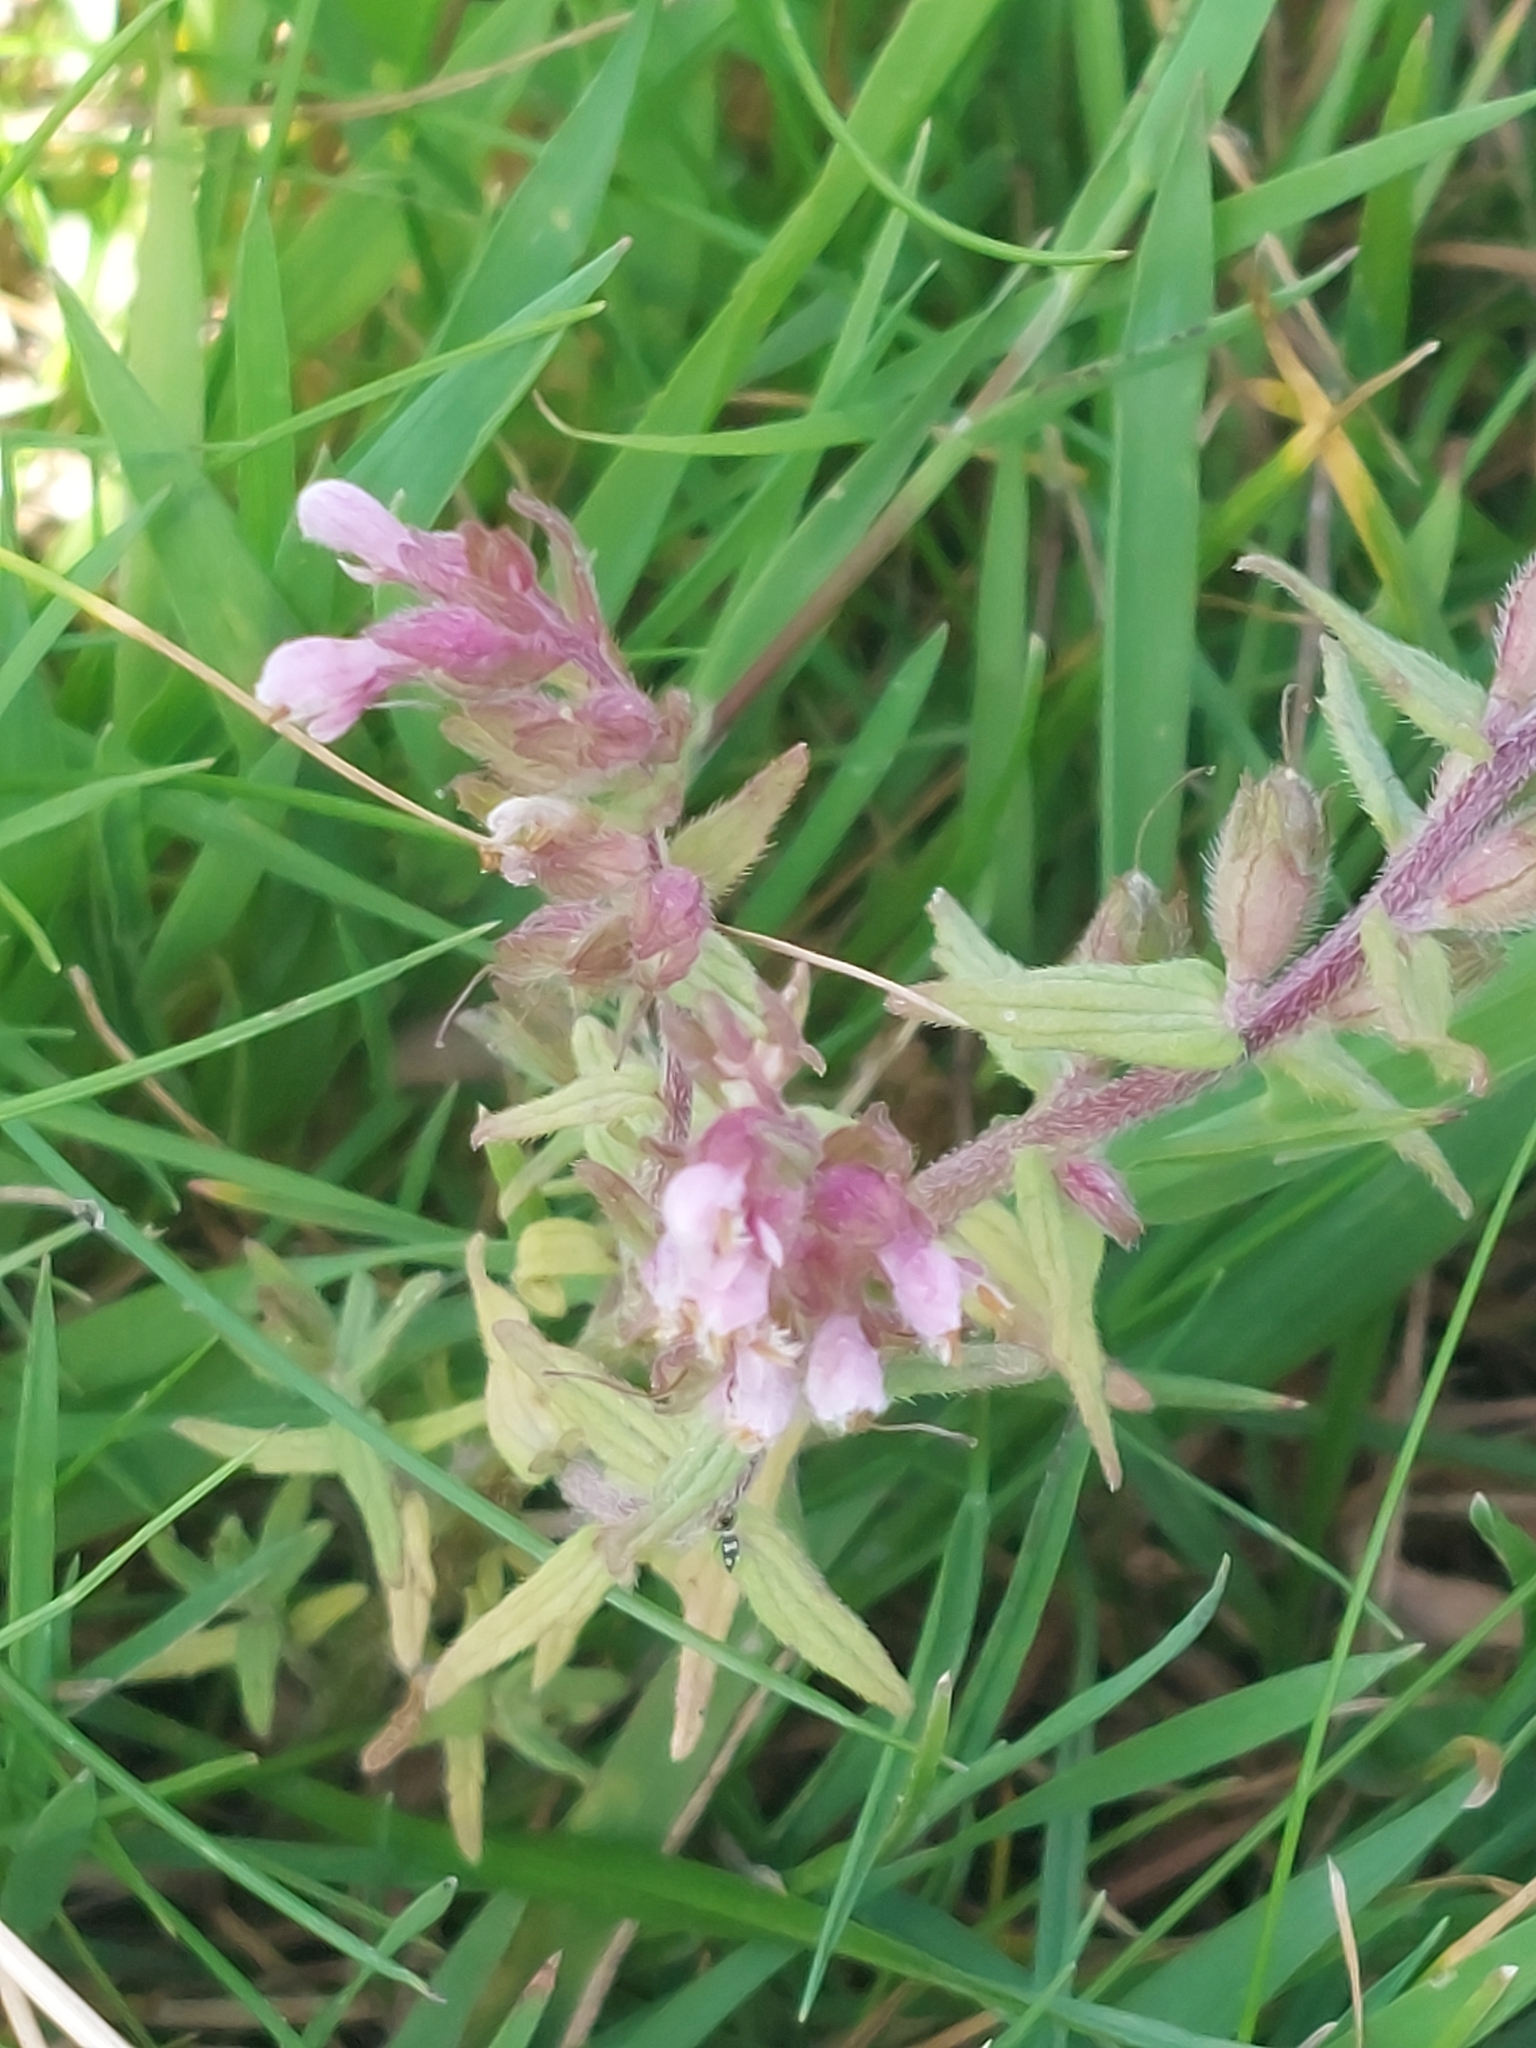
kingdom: Plantae
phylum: Tracheophyta
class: Magnoliopsida
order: Lamiales
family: Orobanchaceae
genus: Odontites
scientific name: Odontites vernus
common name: Red bartsia
